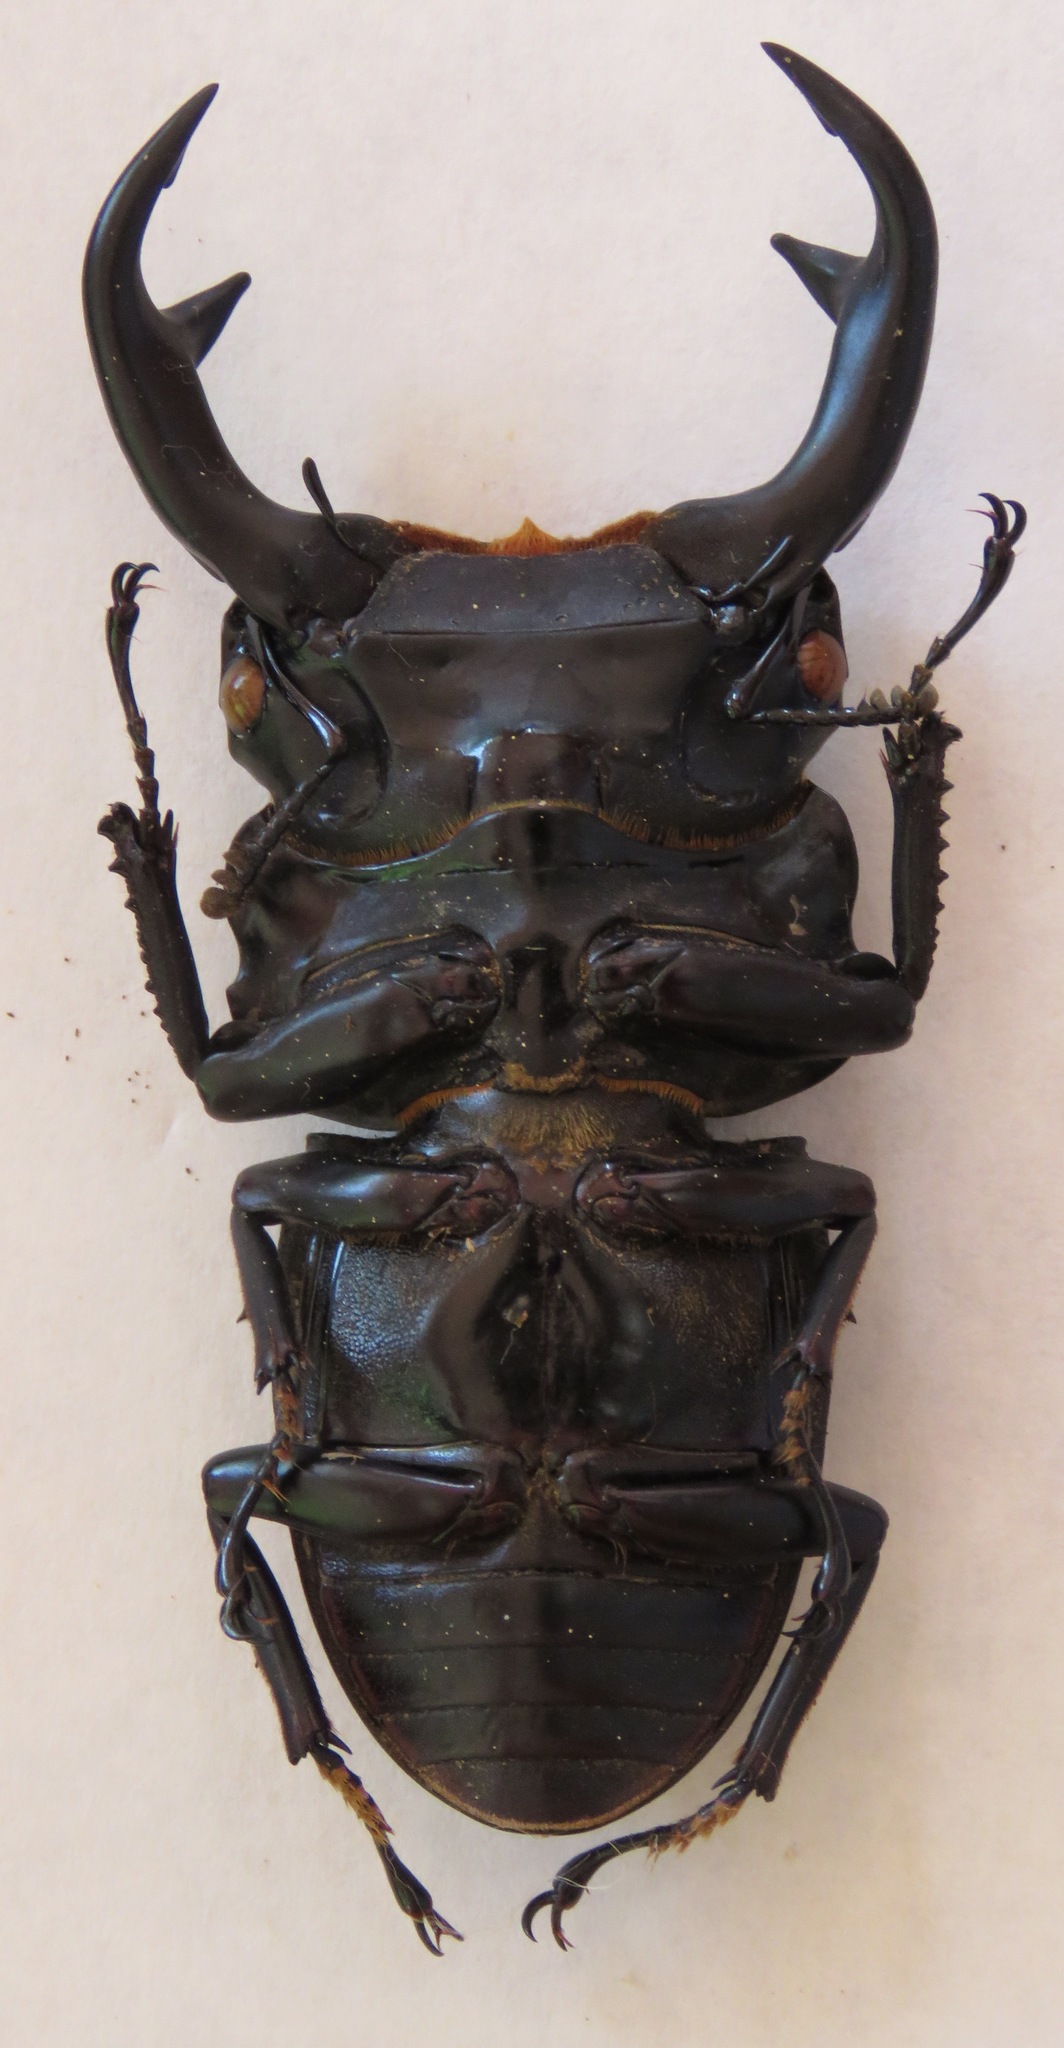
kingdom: Animalia
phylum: Arthropoda
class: Insecta
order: Coleoptera
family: Lucanidae
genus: Dorcus
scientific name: Dorcus curvidens
